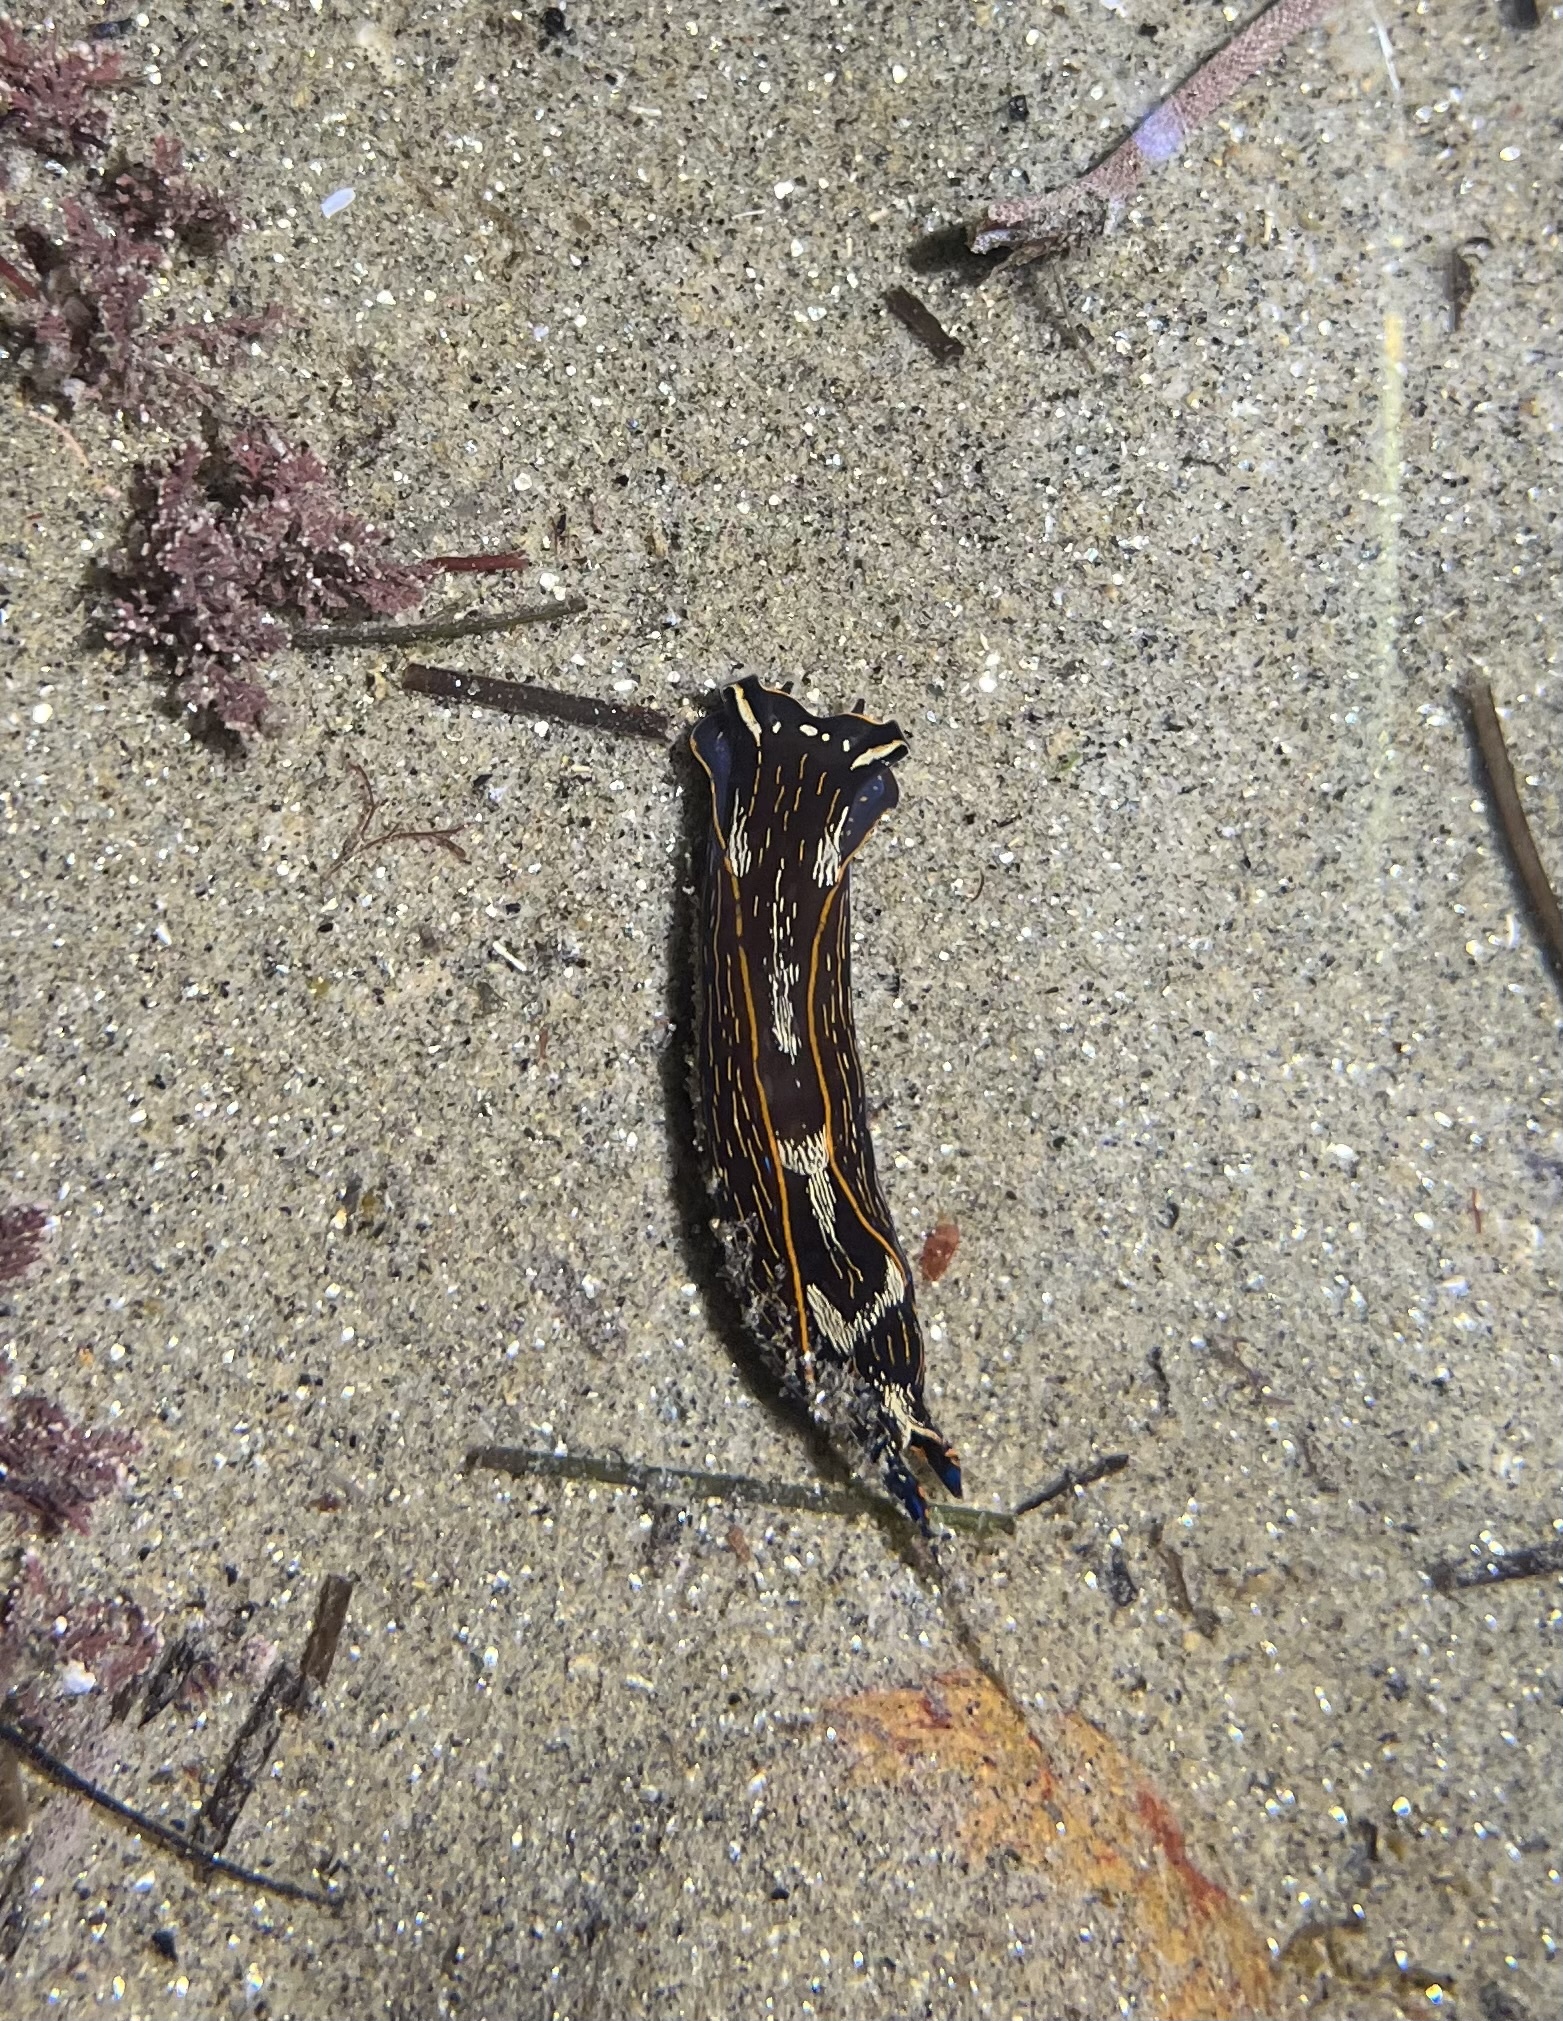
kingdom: Animalia
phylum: Mollusca
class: Gastropoda
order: Cephalaspidea
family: Aglajidae
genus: Navanax
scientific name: Navanax inermis
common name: California aglaja
